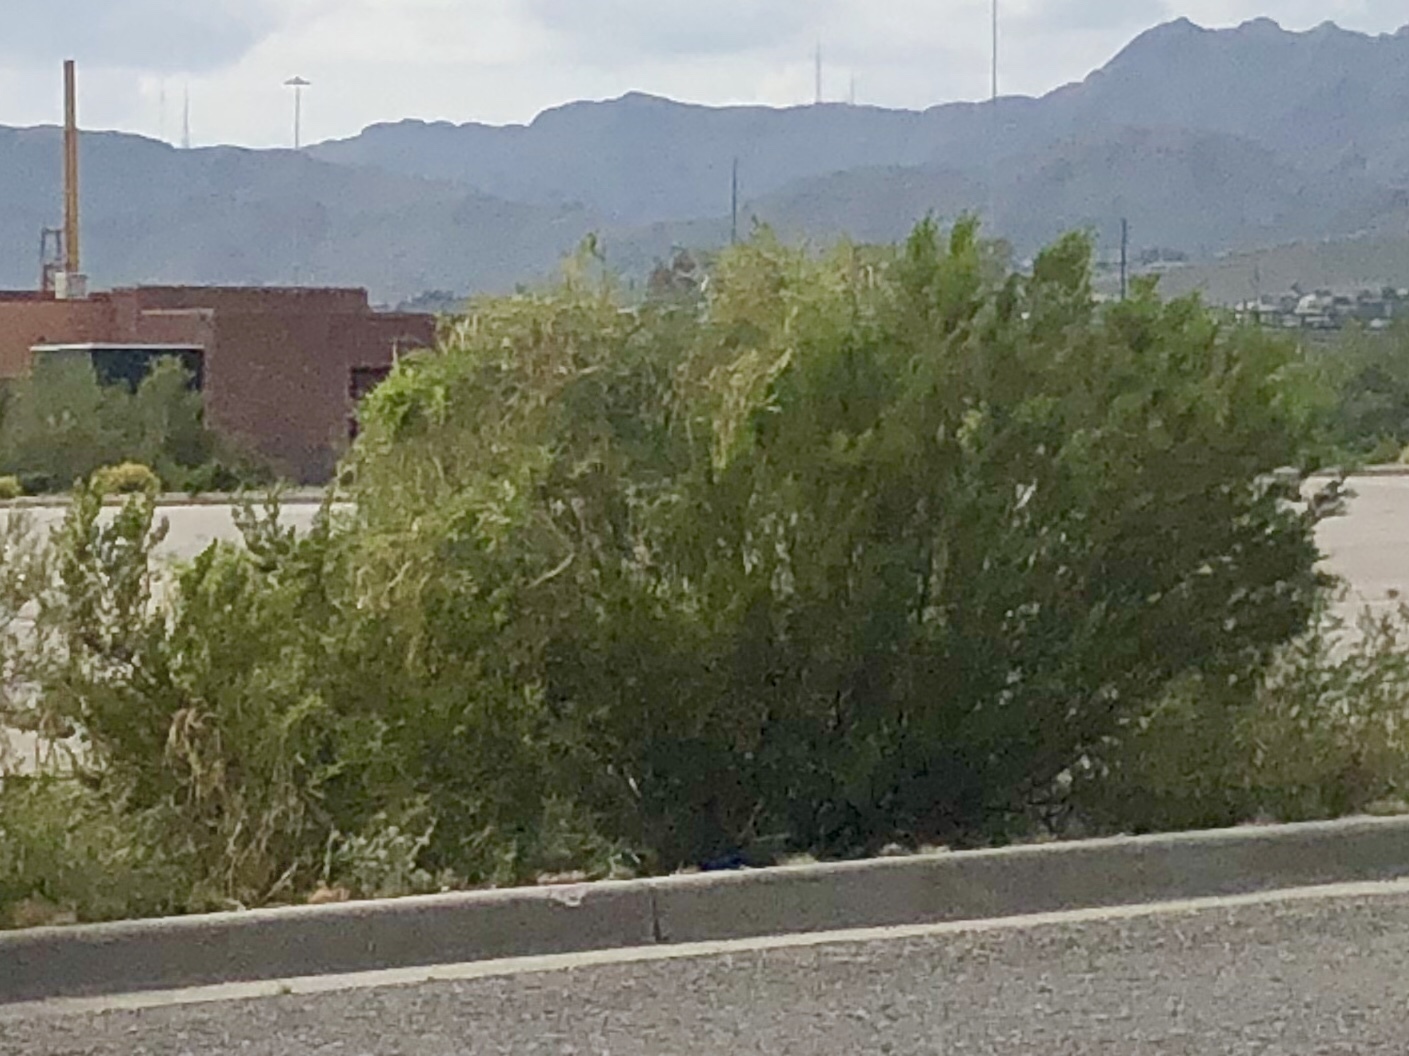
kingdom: Plantae
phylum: Tracheophyta
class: Magnoliopsida
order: Zygophyllales
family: Zygophyllaceae
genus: Larrea
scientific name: Larrea tridentata
